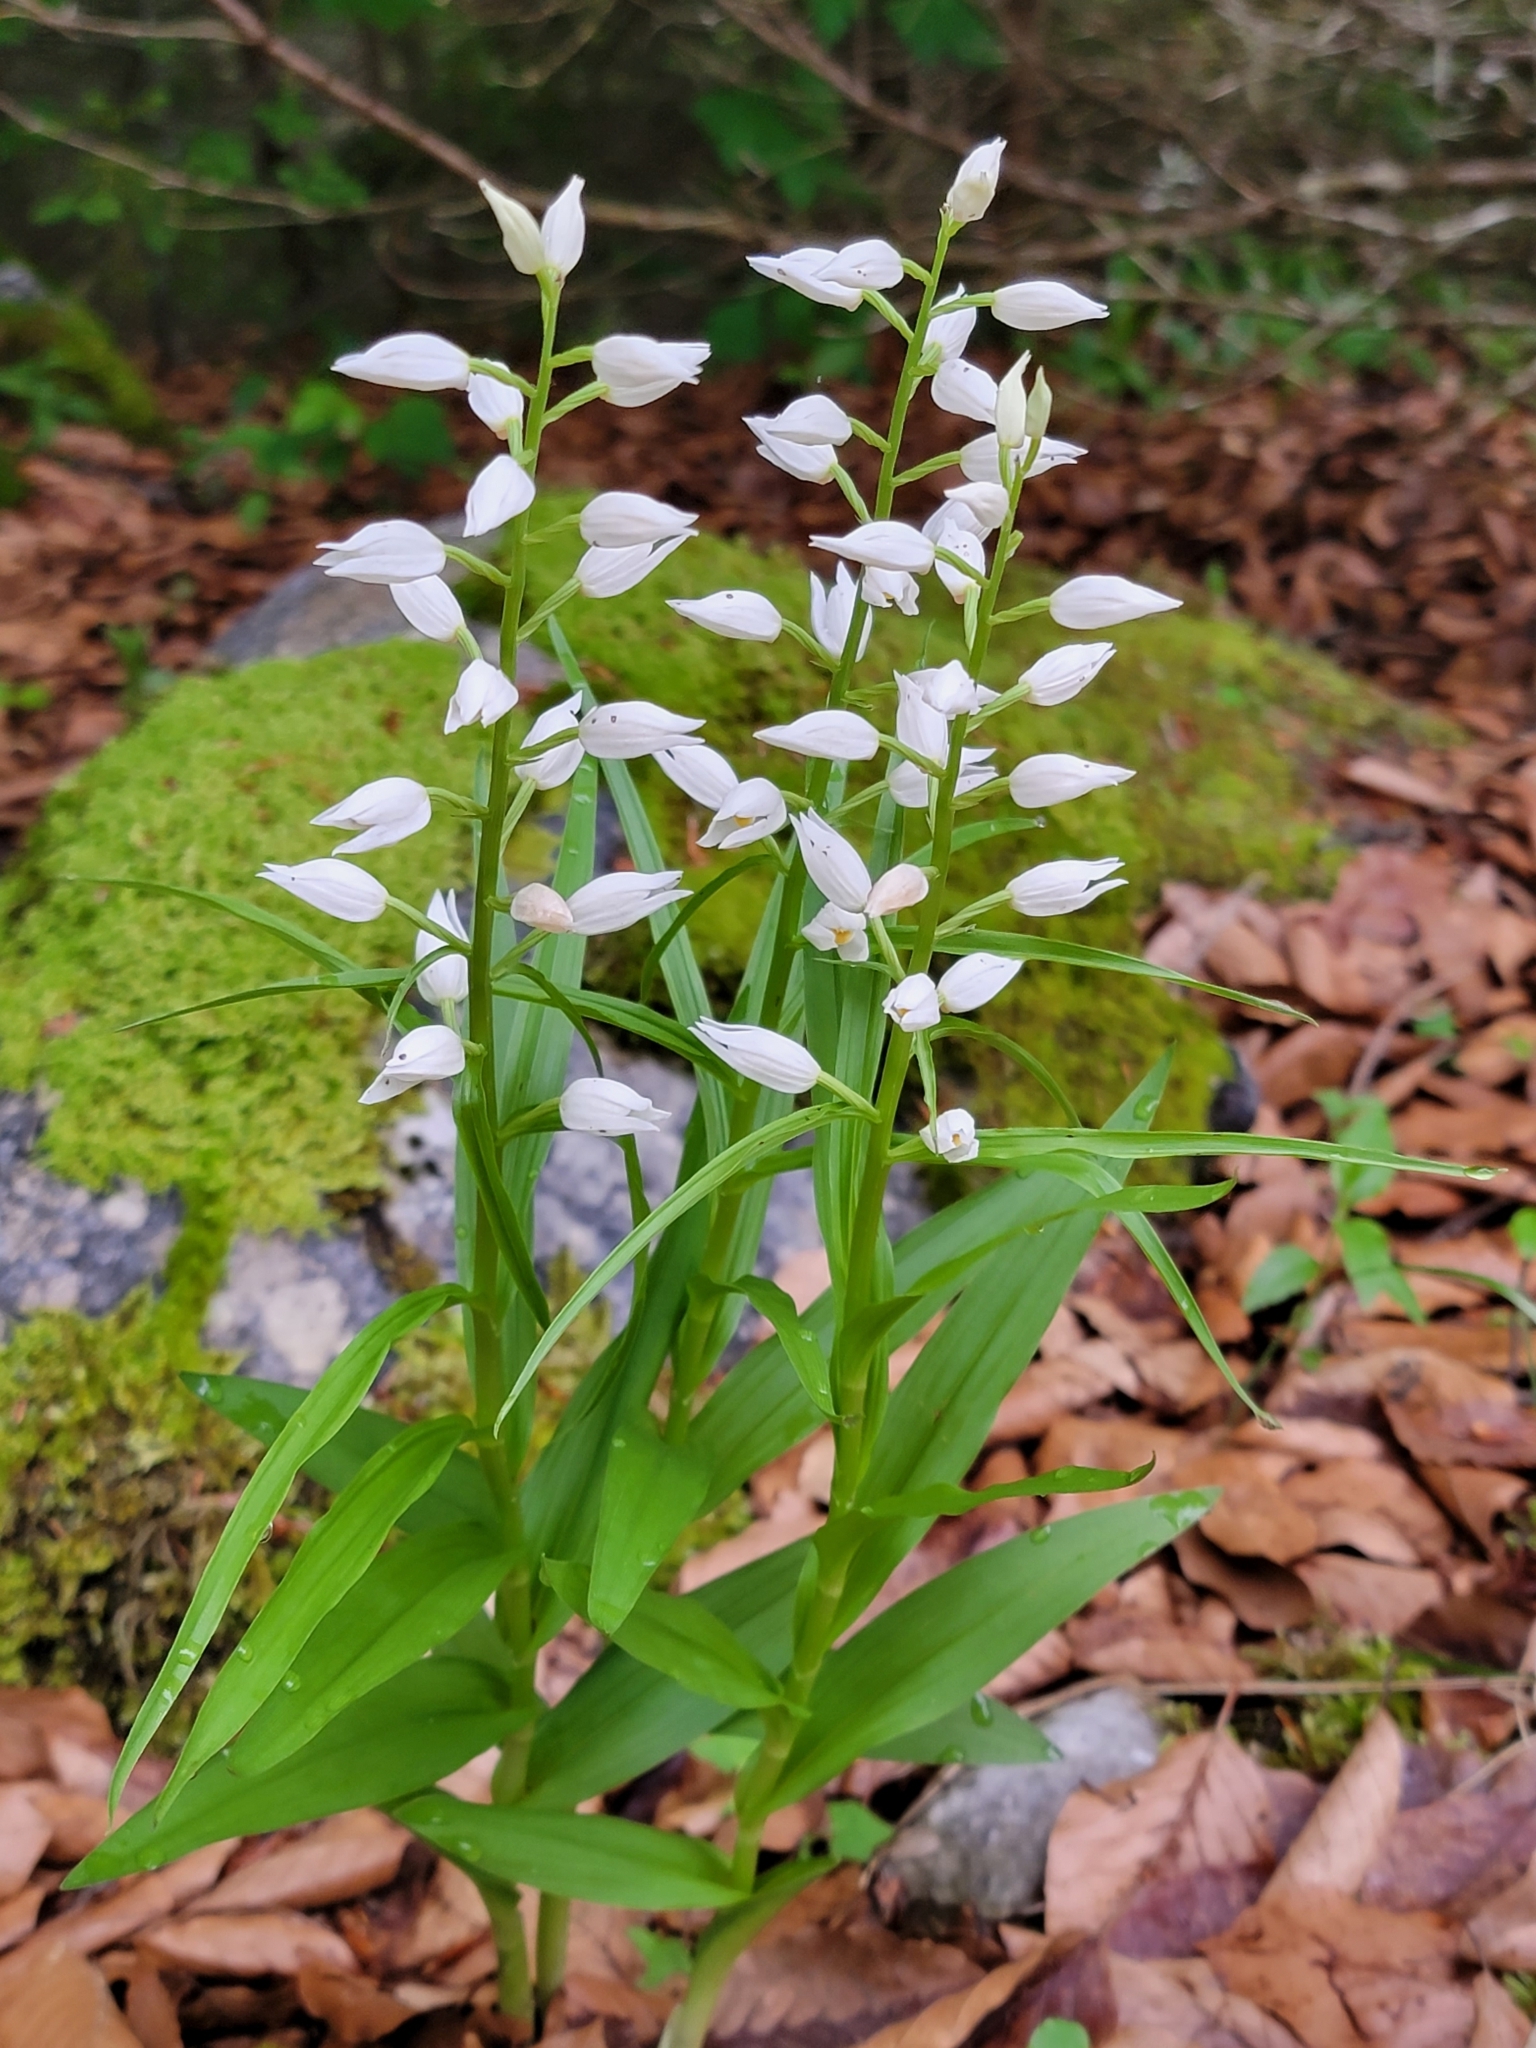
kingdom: Plantae
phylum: Tracheophyta
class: Liliopsida
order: Asparagales
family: Orchidaceae
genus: Cephalanthera
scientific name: Cephalanthera longifolia
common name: Narrow-leaved helleborine
